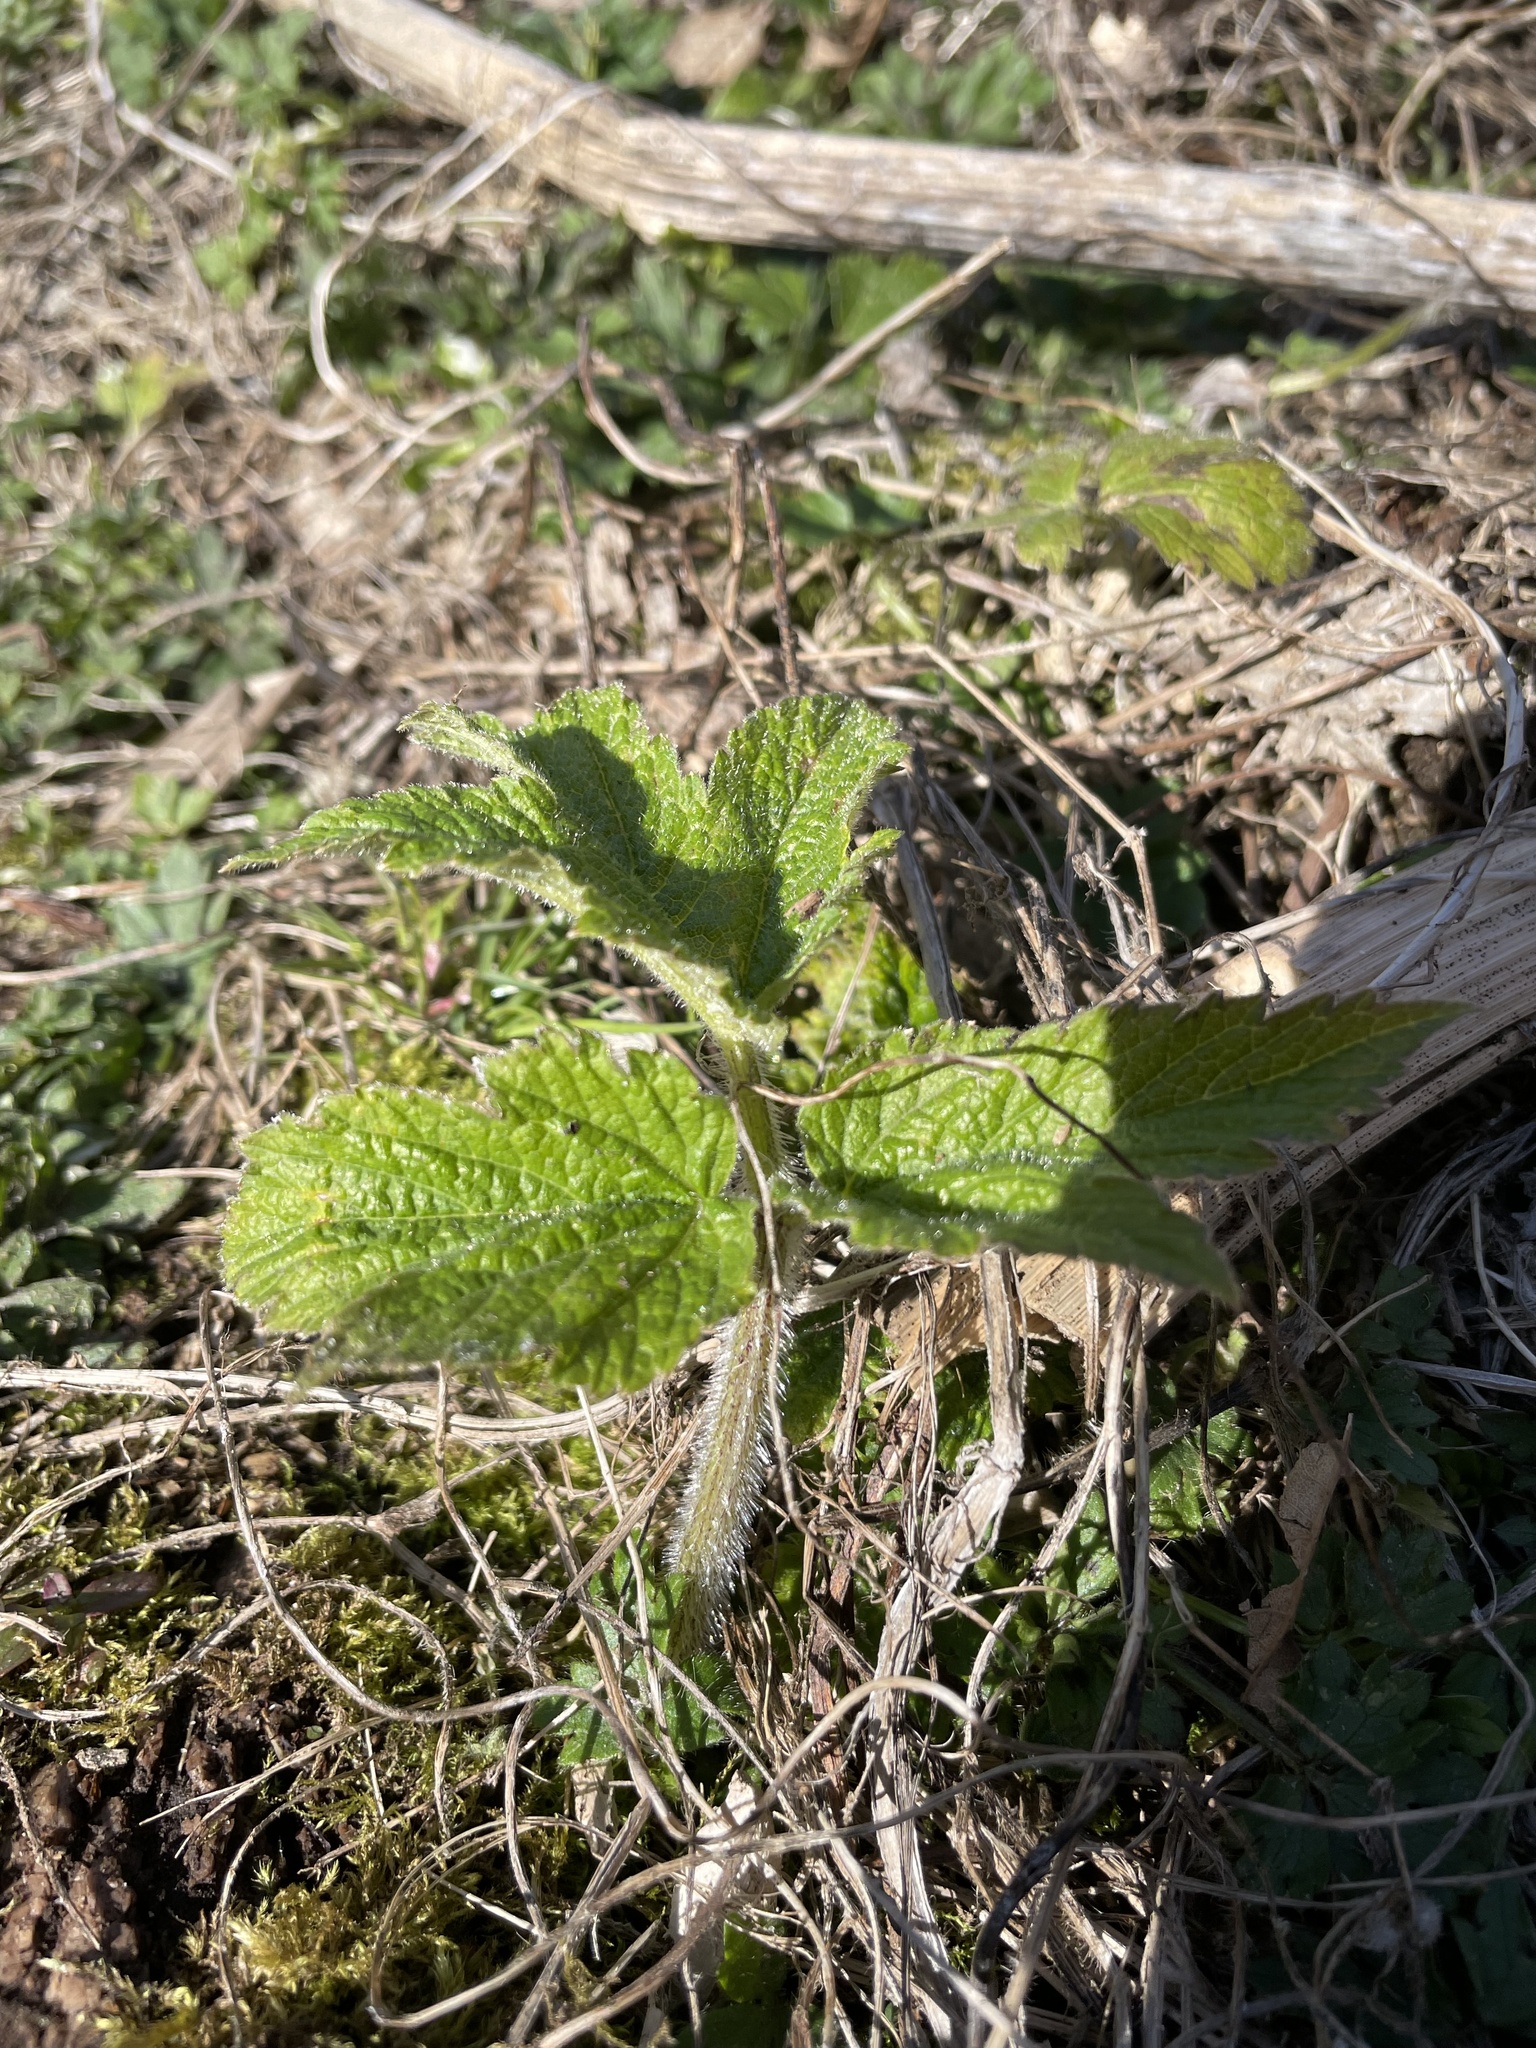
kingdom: Plantae
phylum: Tracheophyta
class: Magnoliopsida
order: Apiales
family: Apiaceae
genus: Heracleum
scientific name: Heracleum maximum
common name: American cow parsnip
